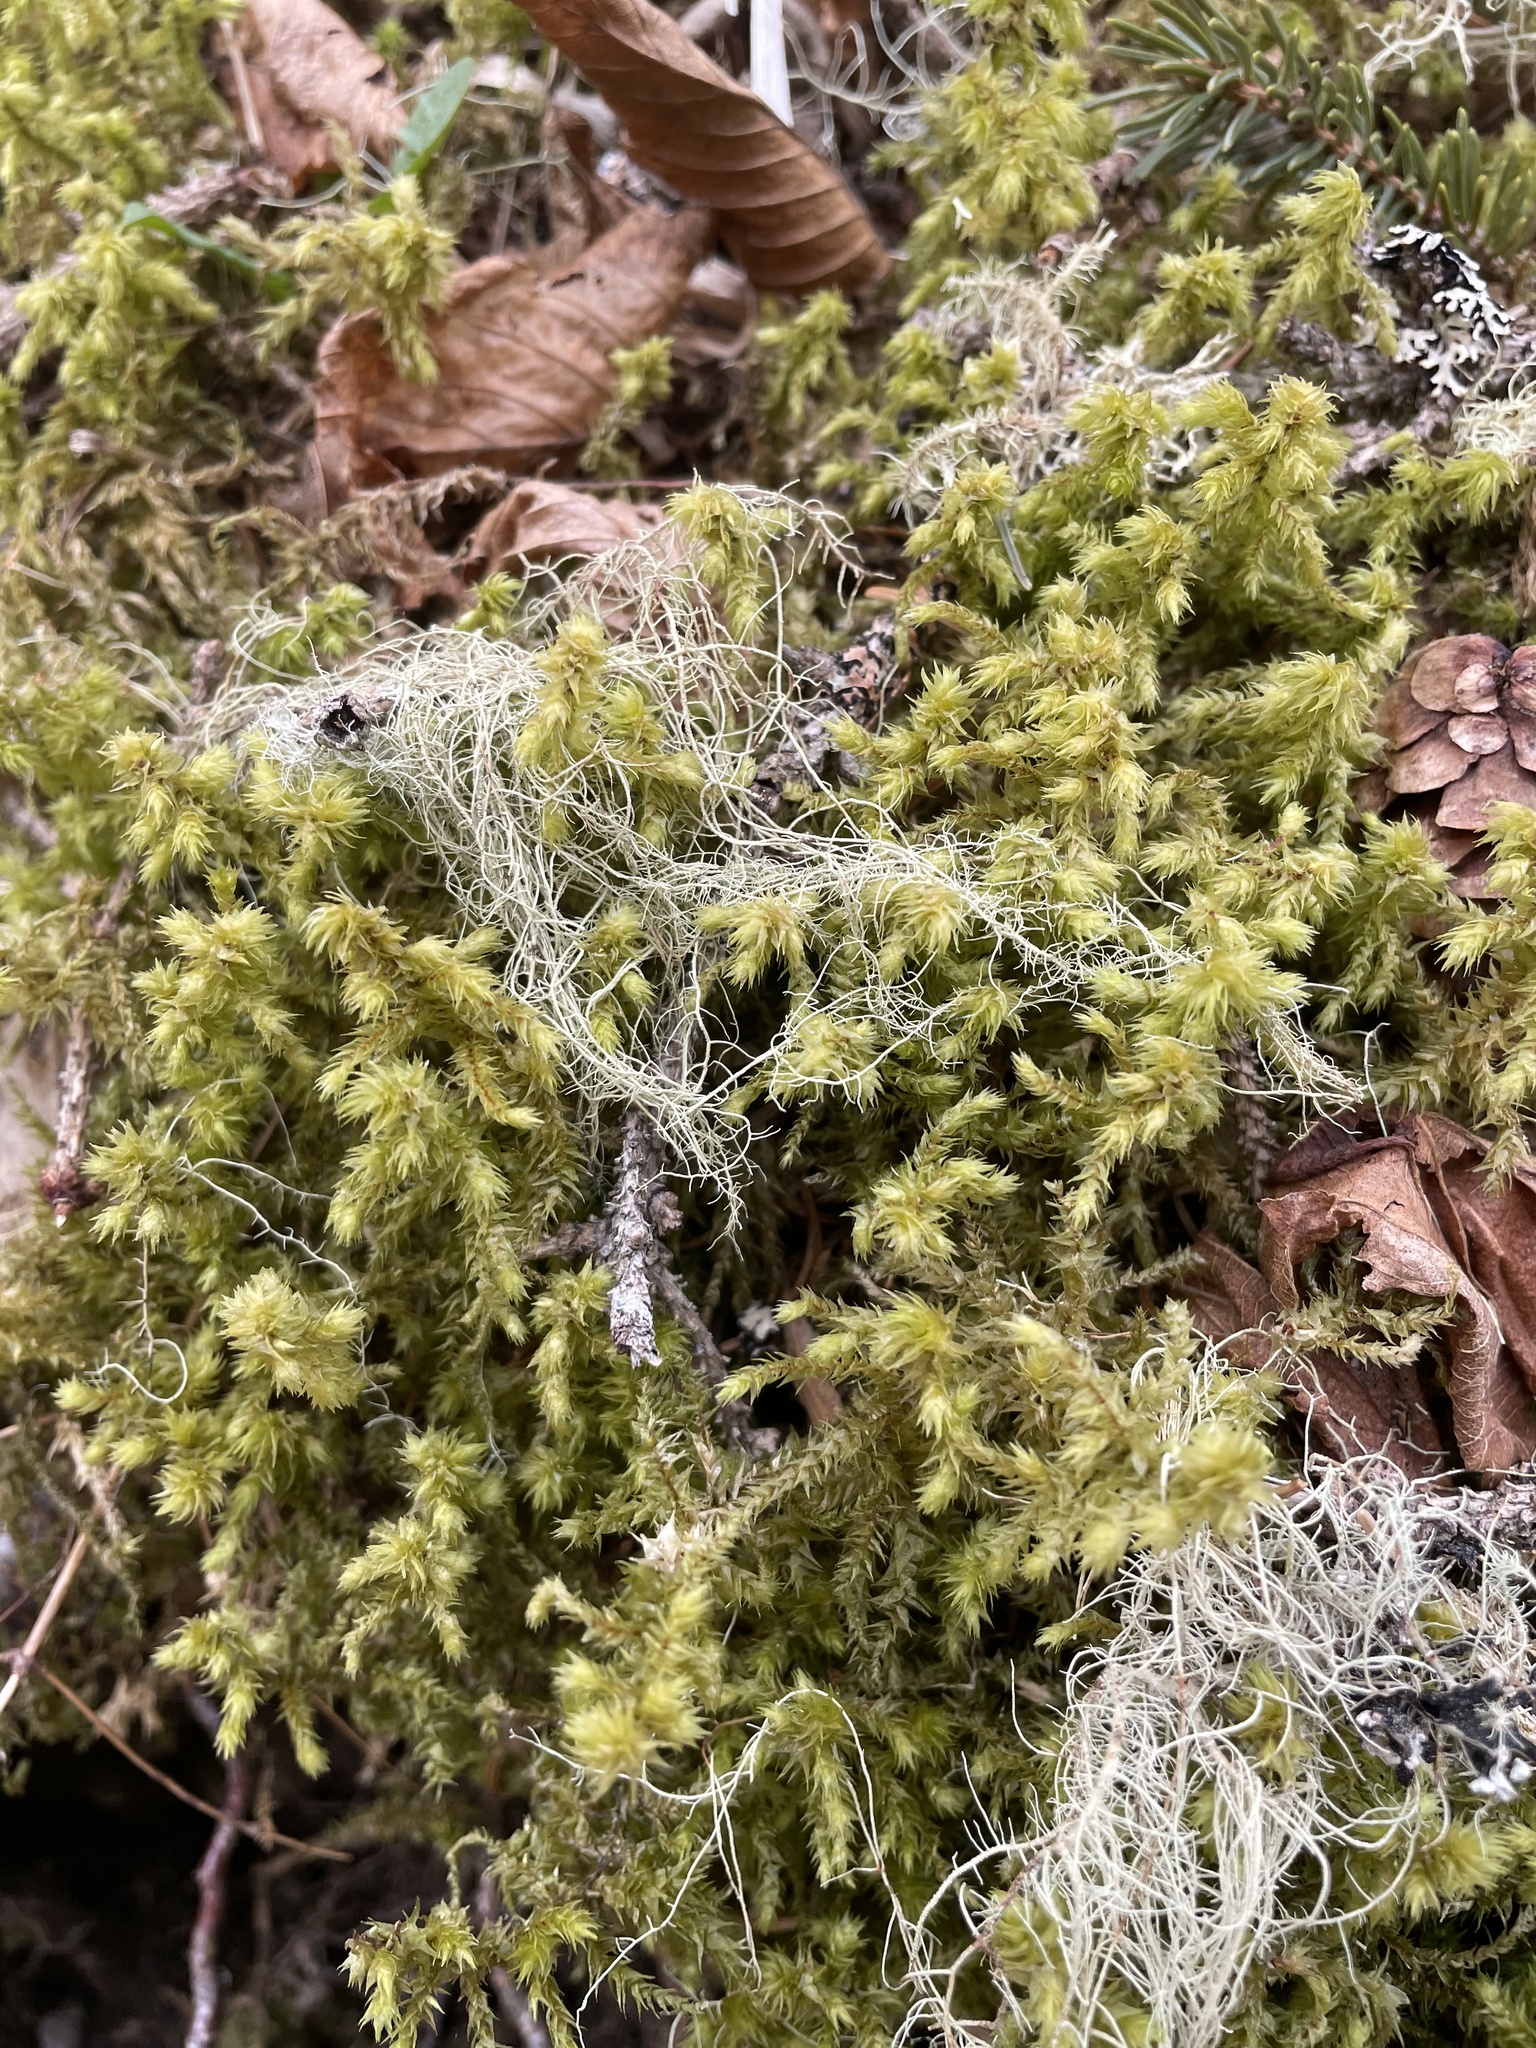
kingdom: Plantae
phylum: Bryophyta
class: Bryopsida
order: Hypnales
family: Hylocomiaceae
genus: Hylocomiadelphus
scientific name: Hylocomiadelphus triquetrus
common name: Rough goose neck moss
